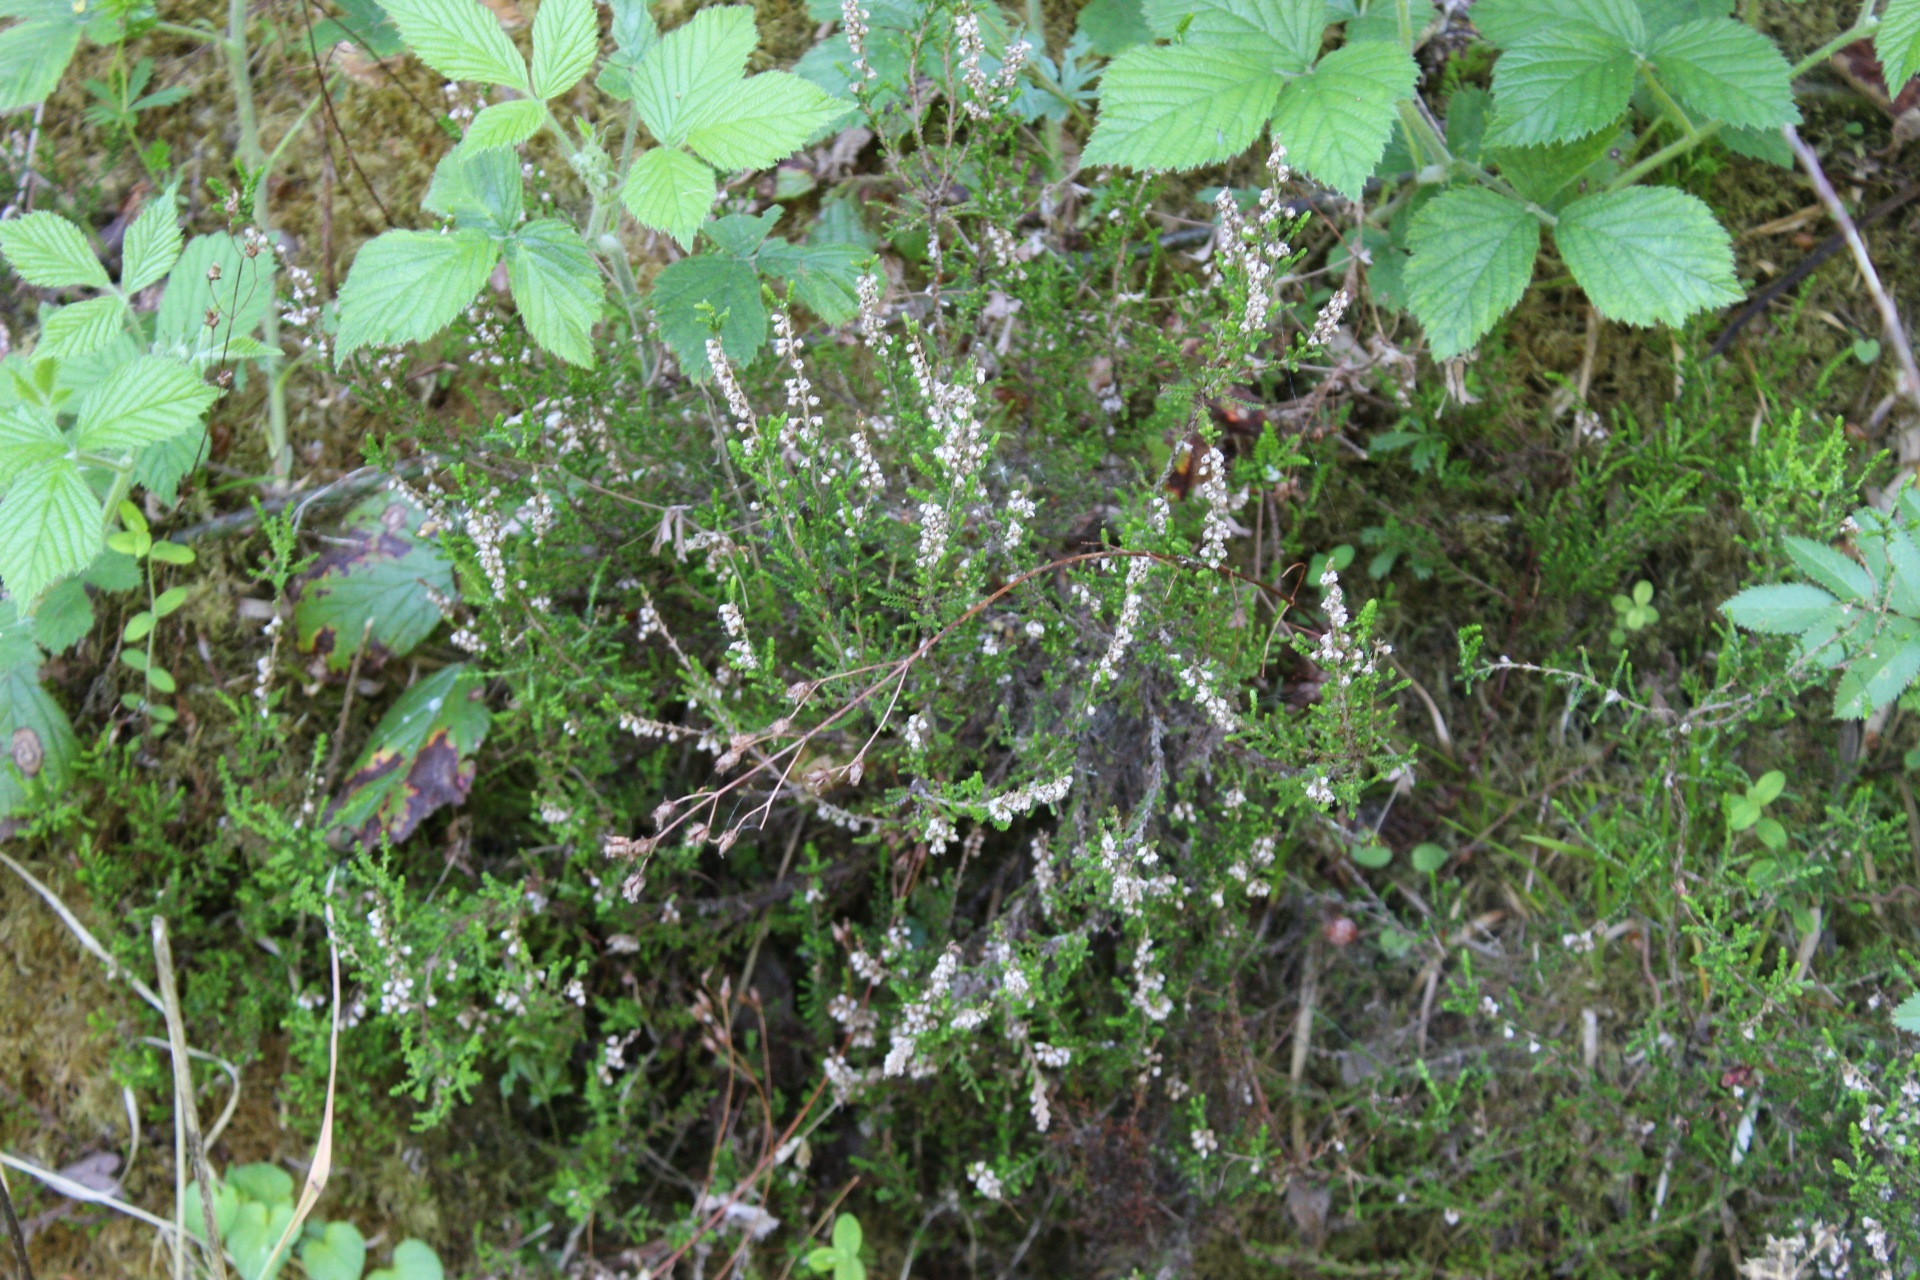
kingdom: Plantae
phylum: Tracheophyta
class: Magnoliopsida
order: Ericales
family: Ericaceae
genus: Calluna
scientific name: Calluna vulgaris
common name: Heather
